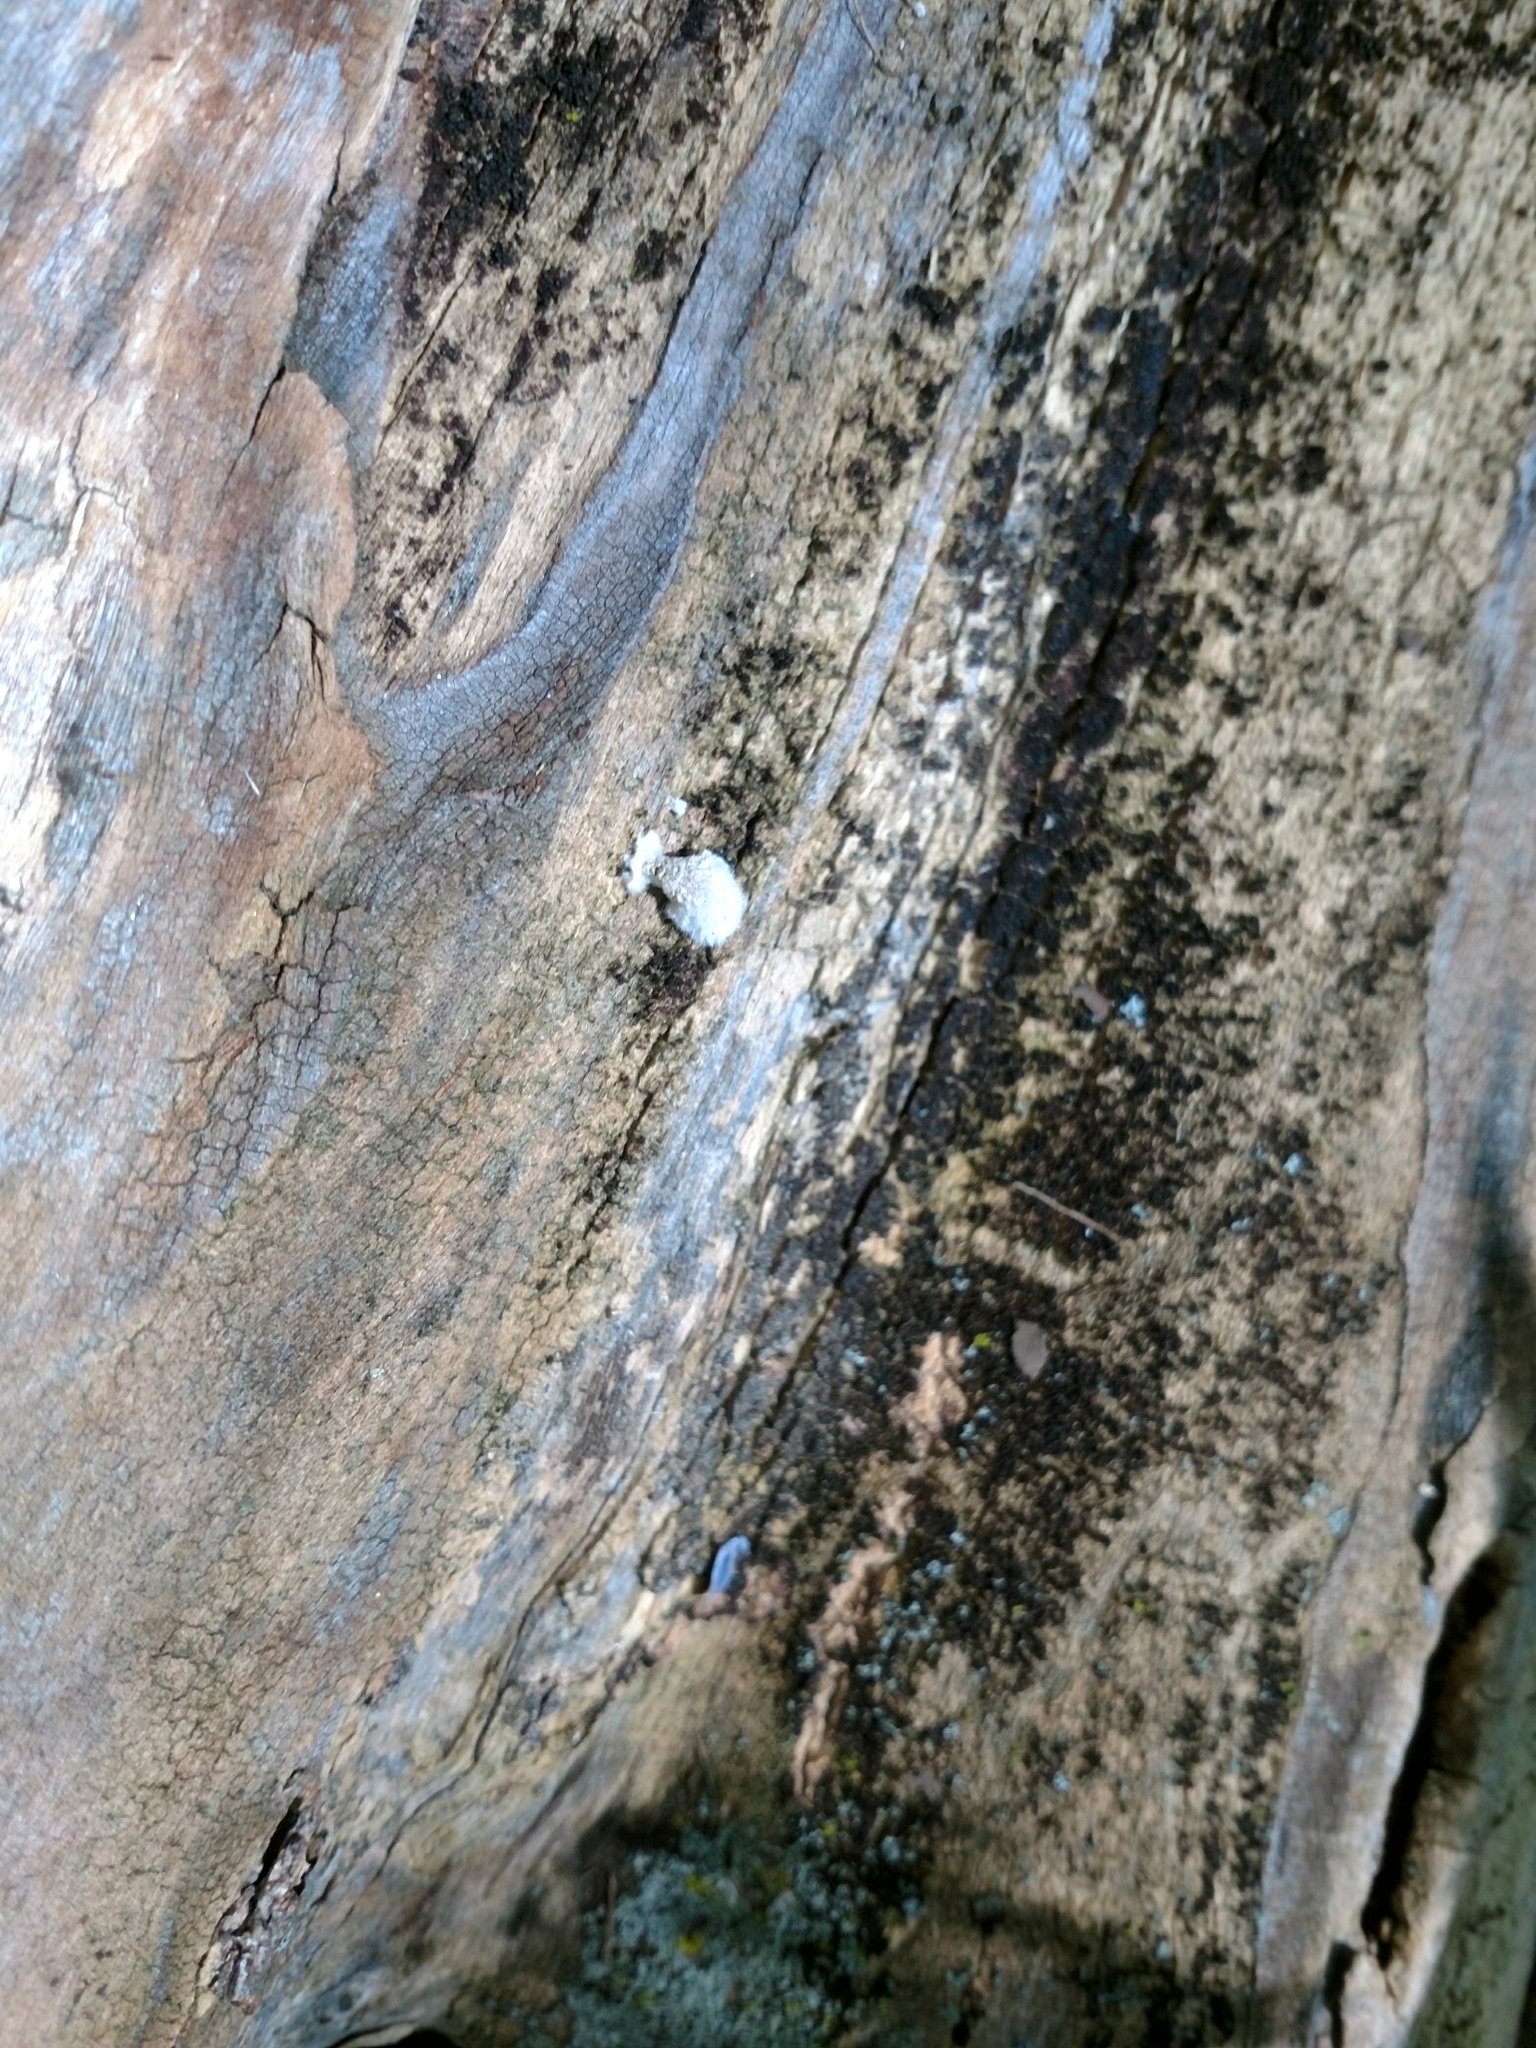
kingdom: Fungi
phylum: Basidiomycota
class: Agaricomycetes
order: Agaricales
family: Schizophyllaceae
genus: Schizophyllum
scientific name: Schizophyllum commune
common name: Common porecrust
